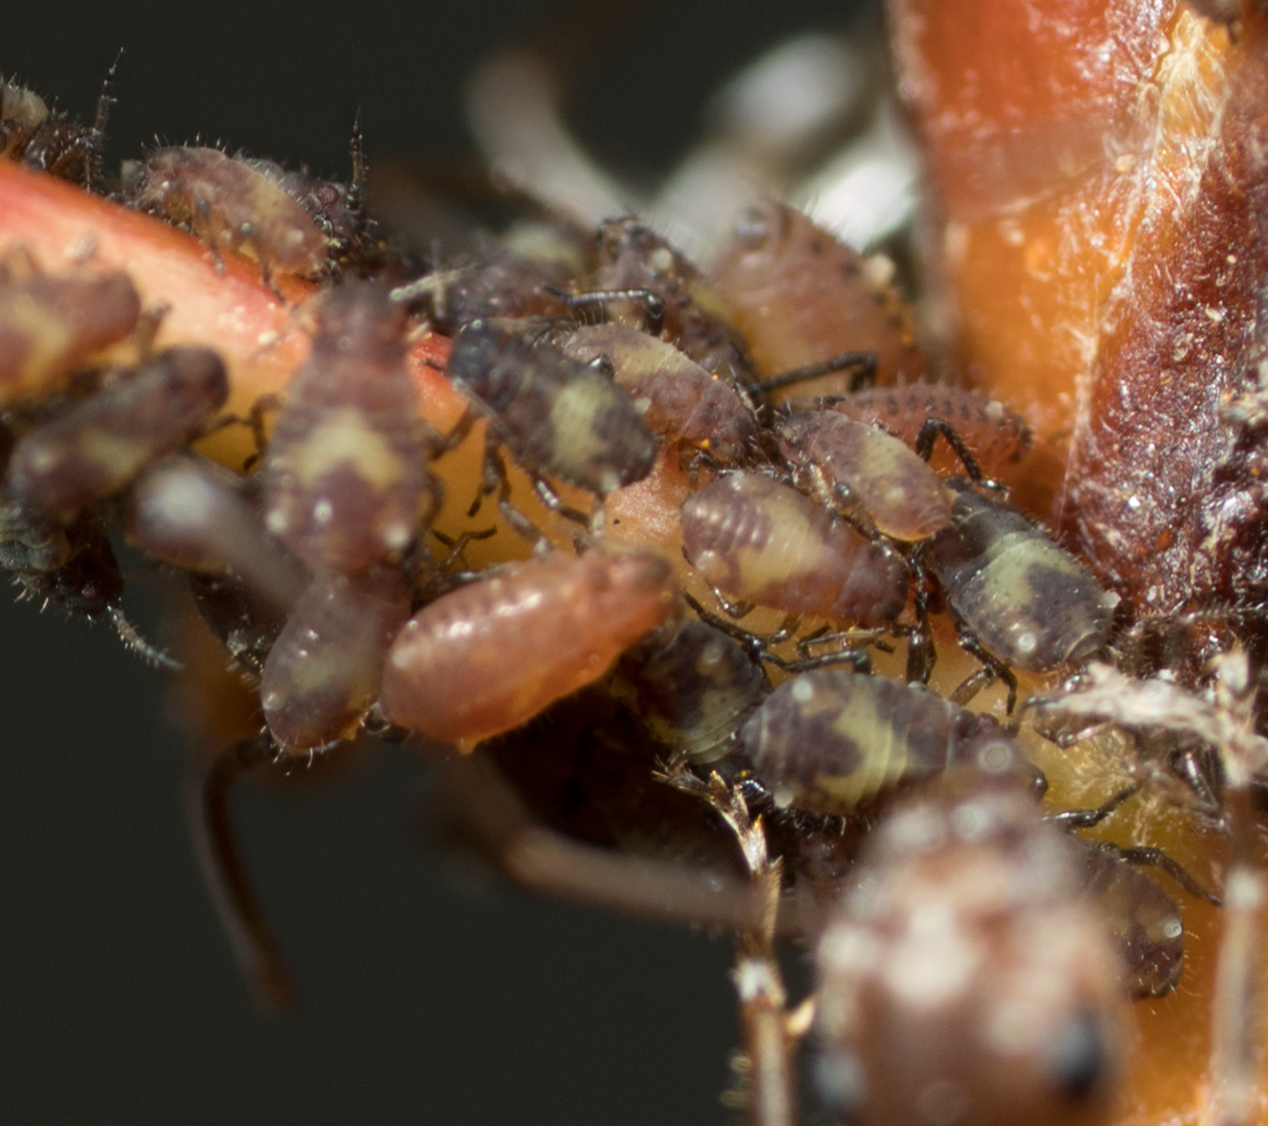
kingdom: Animalia
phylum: Arthropoda
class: Insecta
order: Hemiptera
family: Aphididae
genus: Chaitophorus
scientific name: Chaitophorus populicola
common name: Smokywinged poplar aphid
